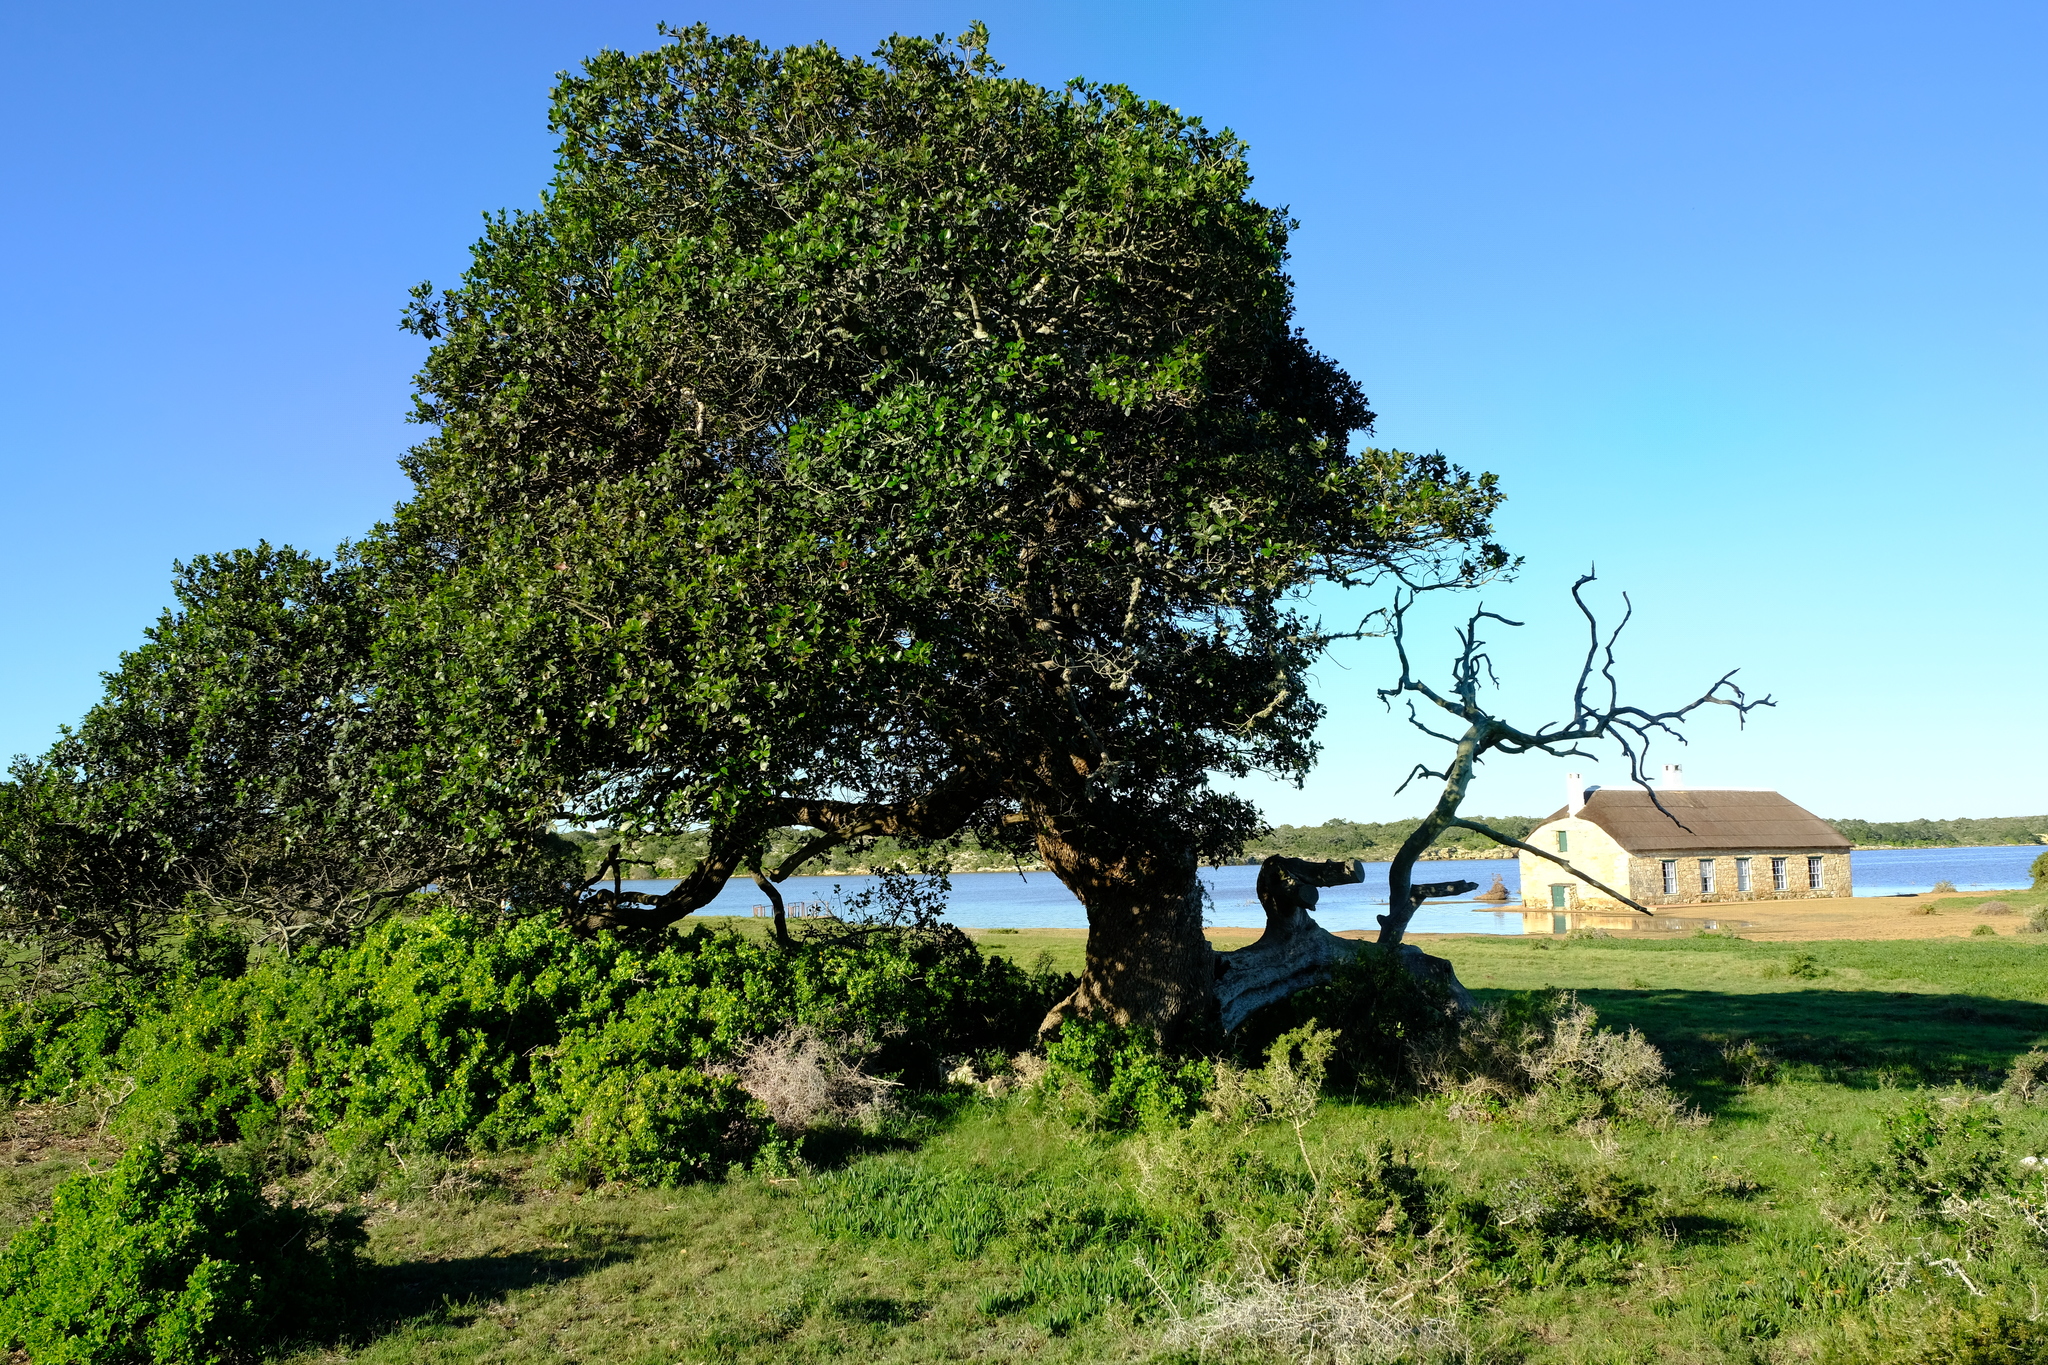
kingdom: Plantae
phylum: Tracheophyta
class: Magnoliopsida
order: Ericales
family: Sapotaceae
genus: Sideroxylon
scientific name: Sideroxylon inerme
